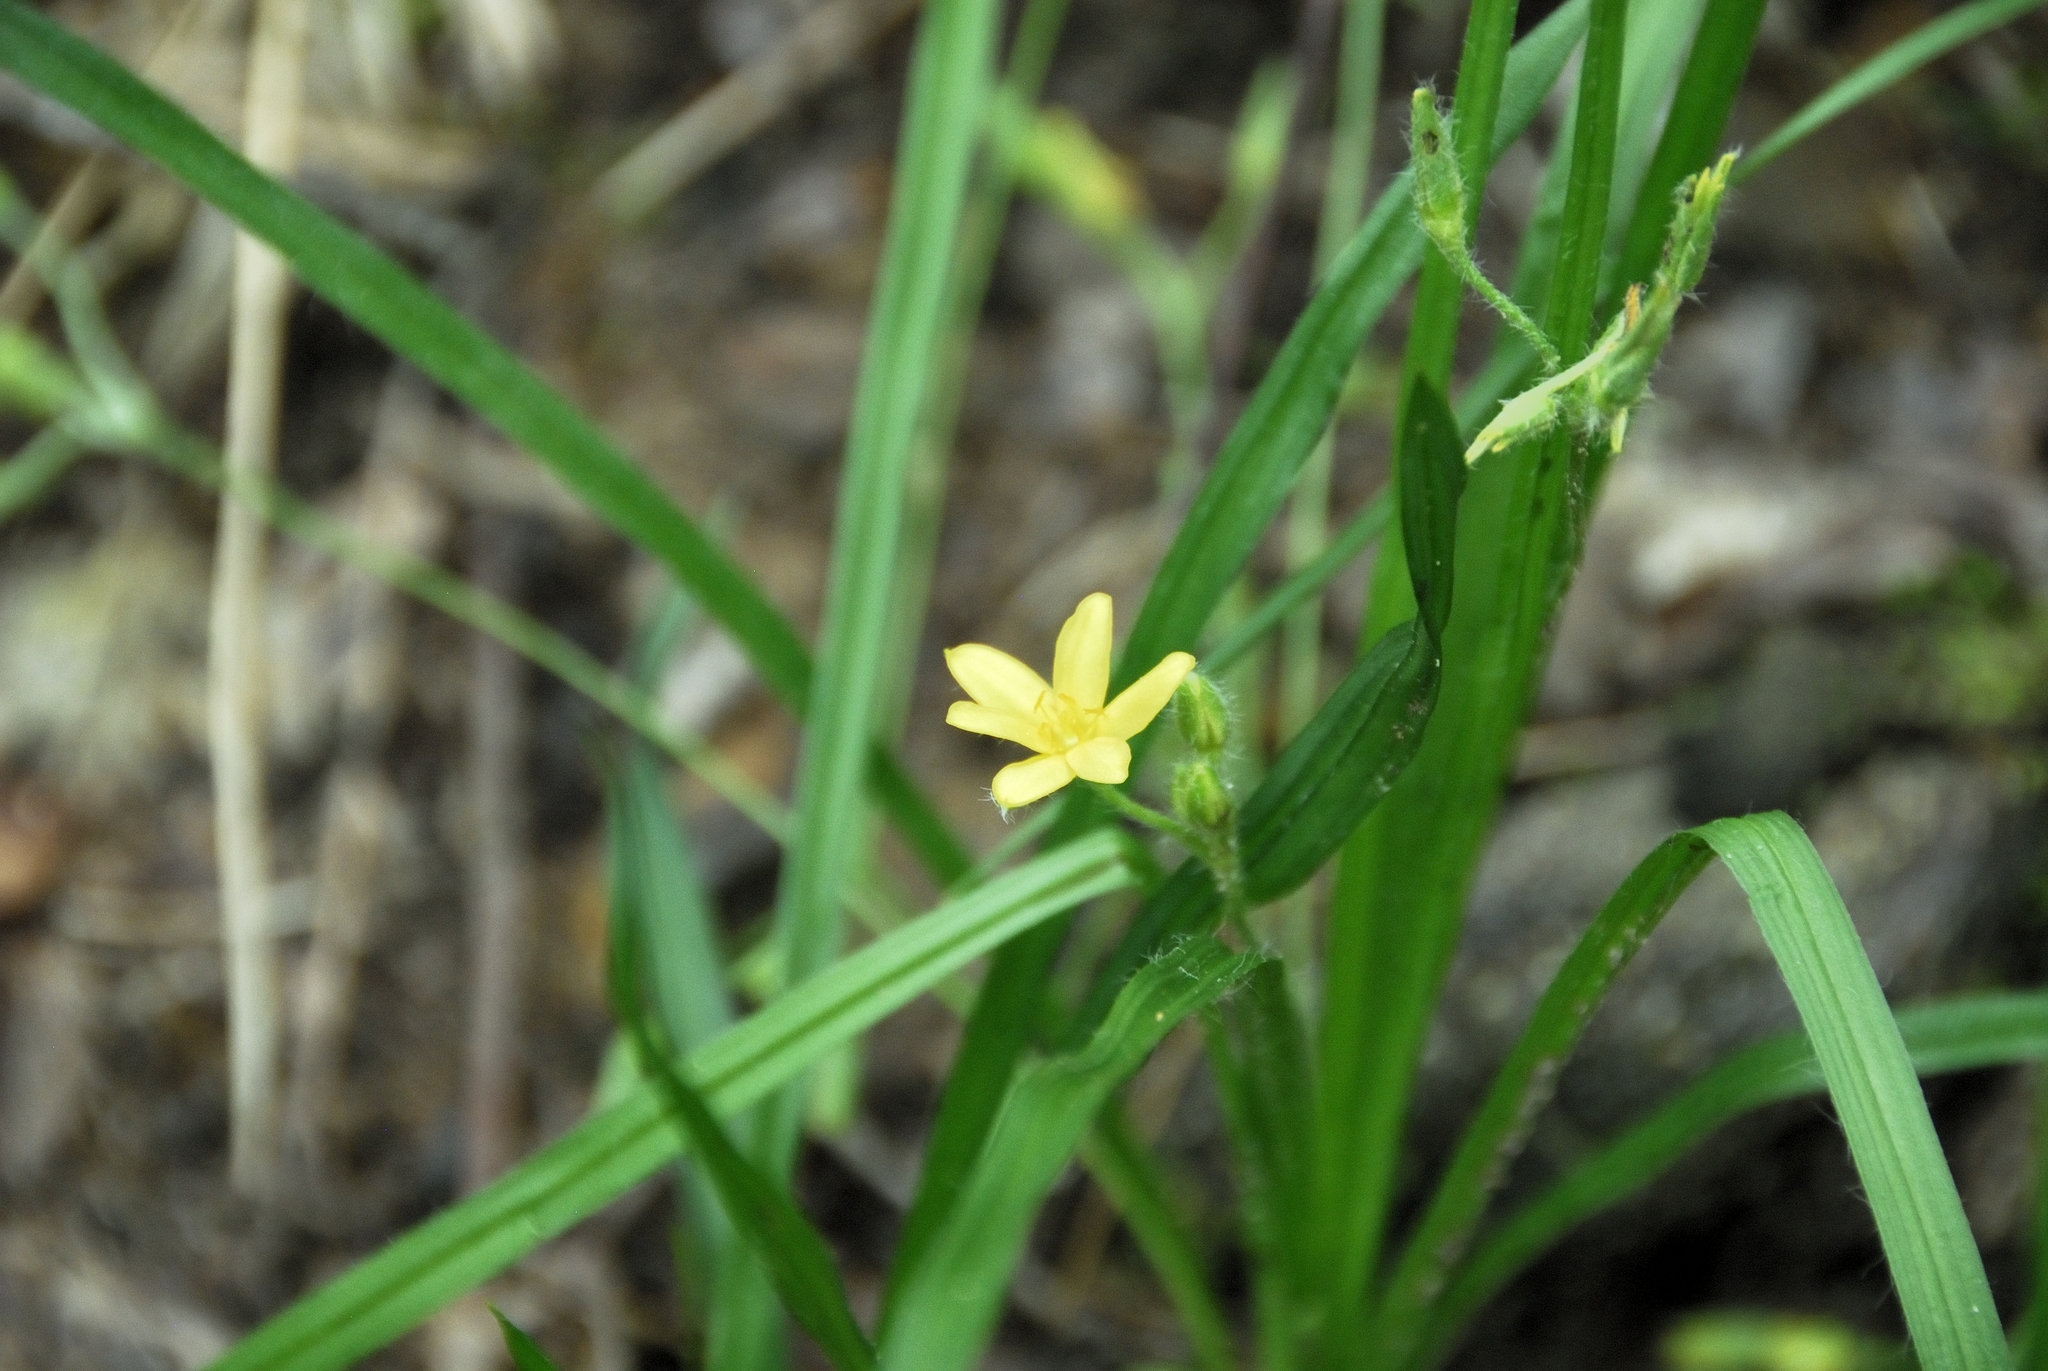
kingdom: Plantae
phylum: Tracheophyta
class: Liliopsida
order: Asparagales
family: Hypoxidaceae
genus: Hypoxis
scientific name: Hypoxis hirsuta
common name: Common goldstar
